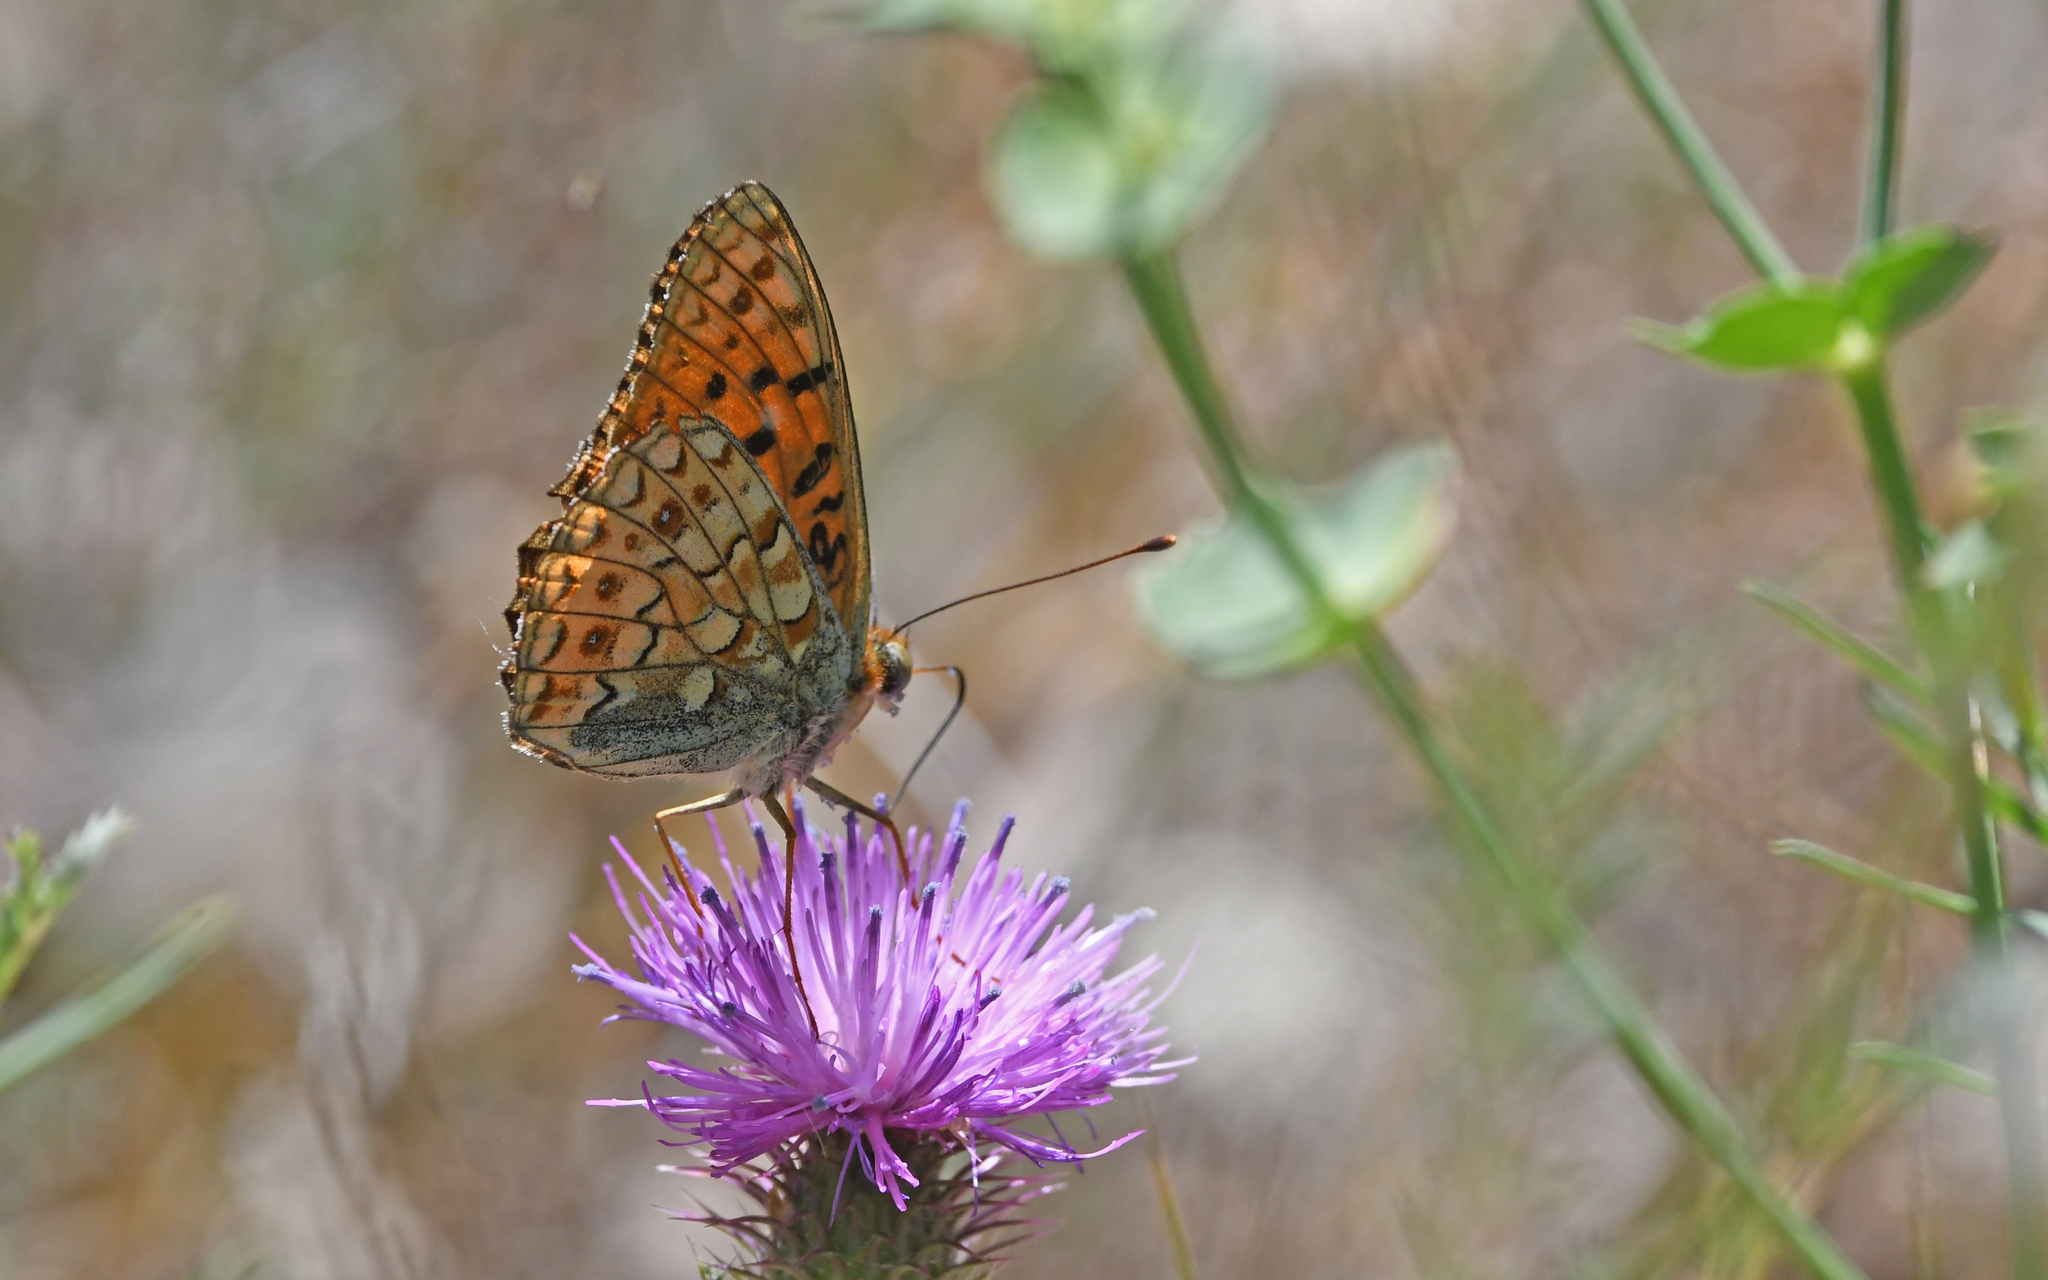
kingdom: Animalia
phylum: Arthropoda
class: Insecta
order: Lepidoptera
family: Nymphalidae
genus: Fabriciana
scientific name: Fabriciana niobe
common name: Niobe fritillary
